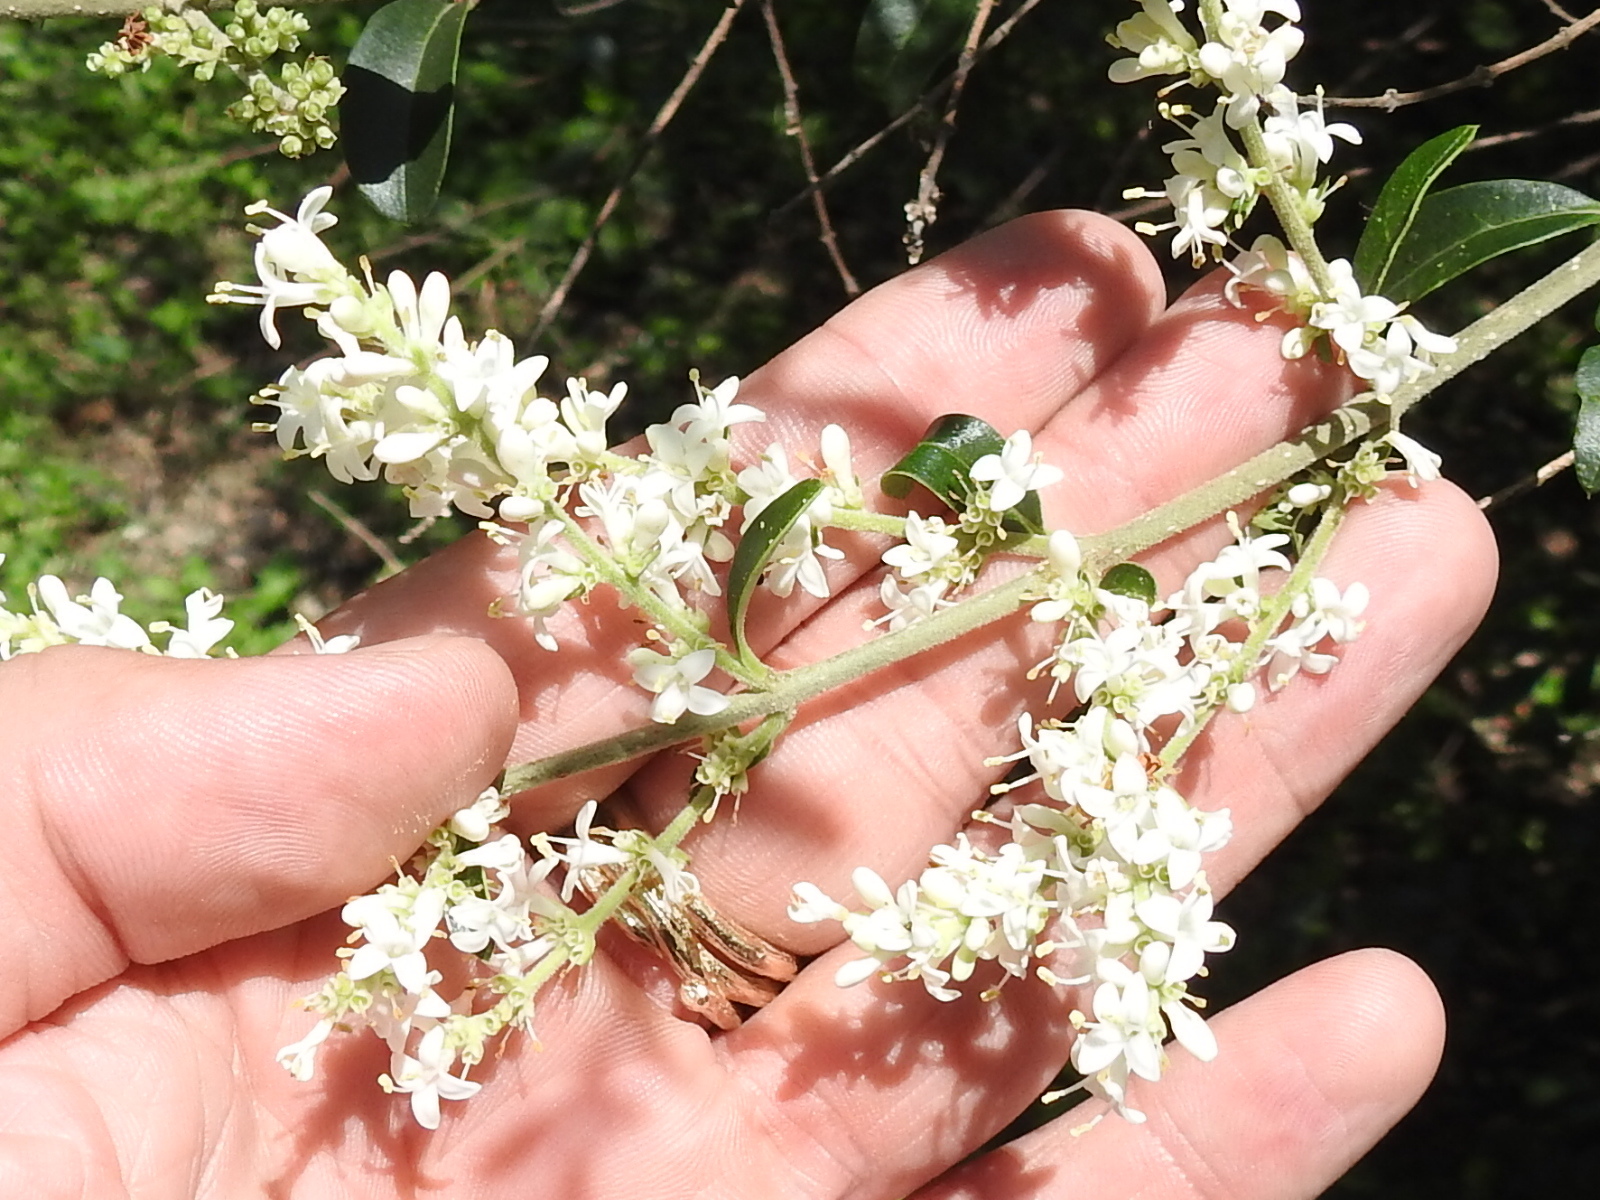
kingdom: Plantae
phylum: Tracheophyta
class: Magnoliopsida
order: Lamiales
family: Oleaceae
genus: Ligustrum
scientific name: Ligustrum quihoui
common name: Waxyleaf privet
